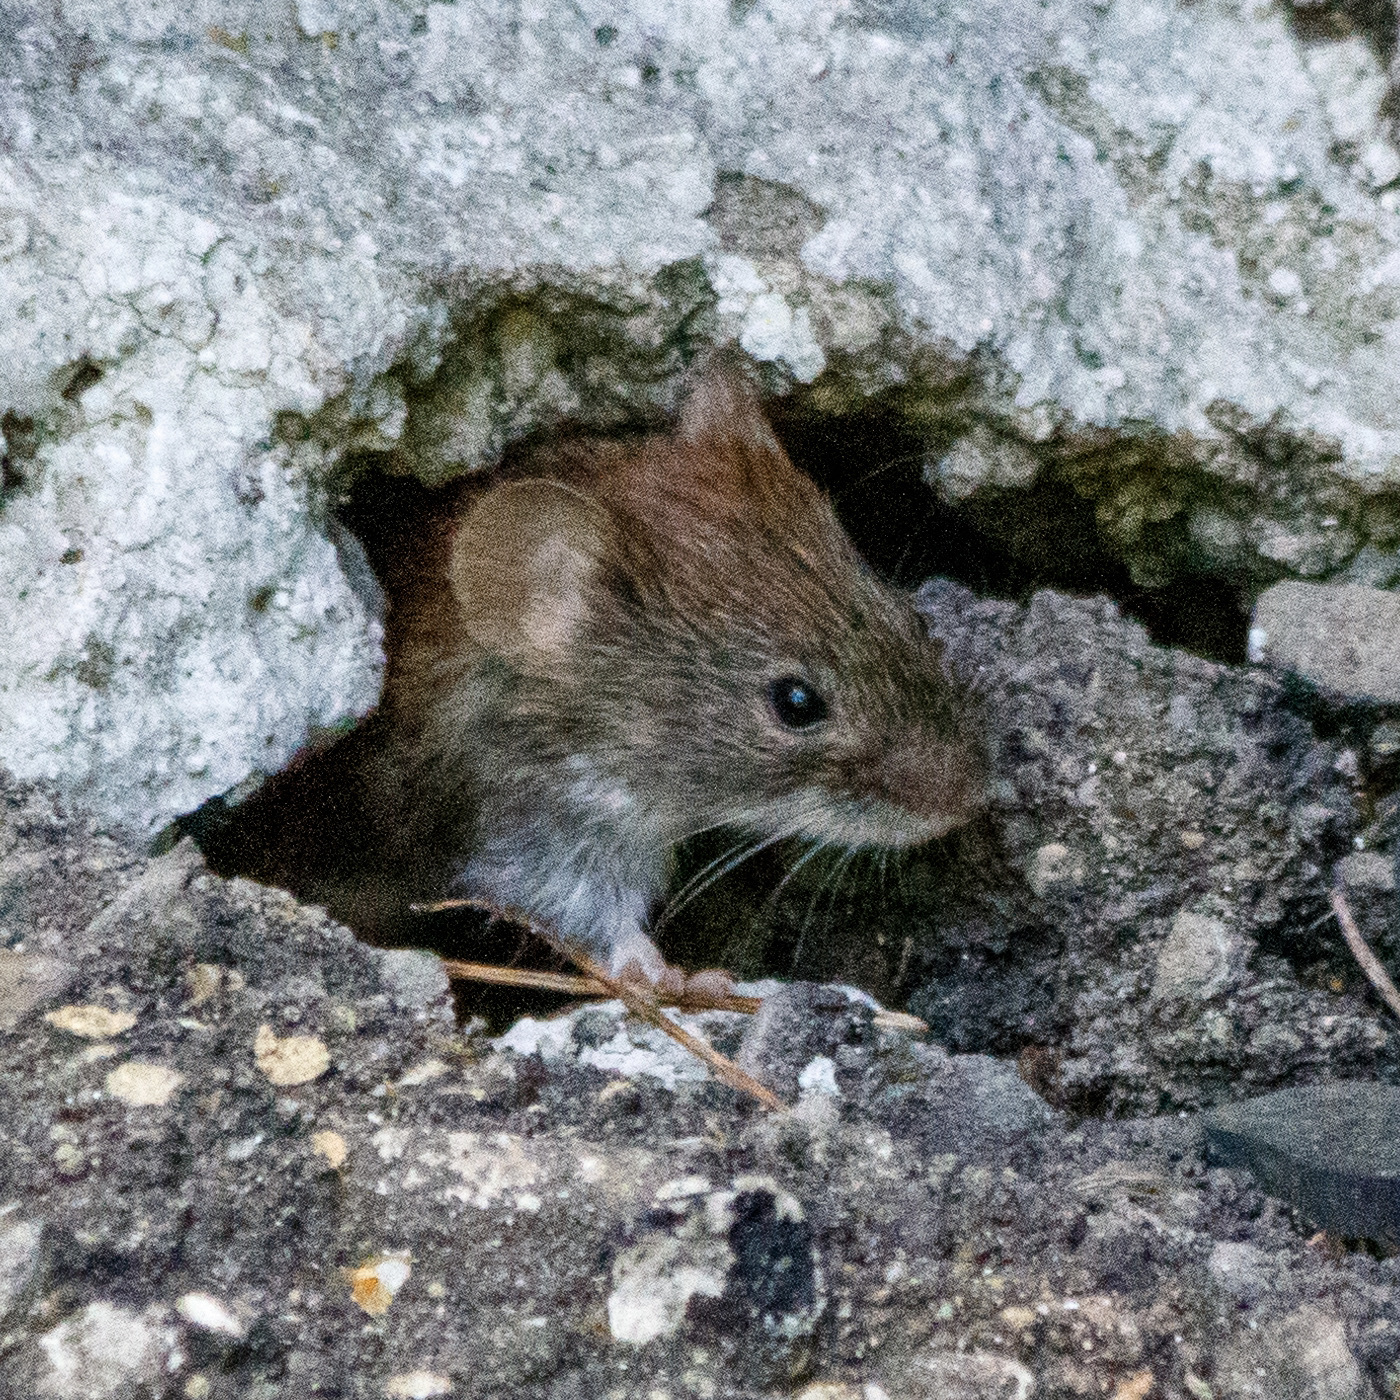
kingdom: Animalia
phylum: Chordata
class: Mammalia
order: Rodentia
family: Cricetidae
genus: Myodes
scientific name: Myodes glareolus
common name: Bank vole
